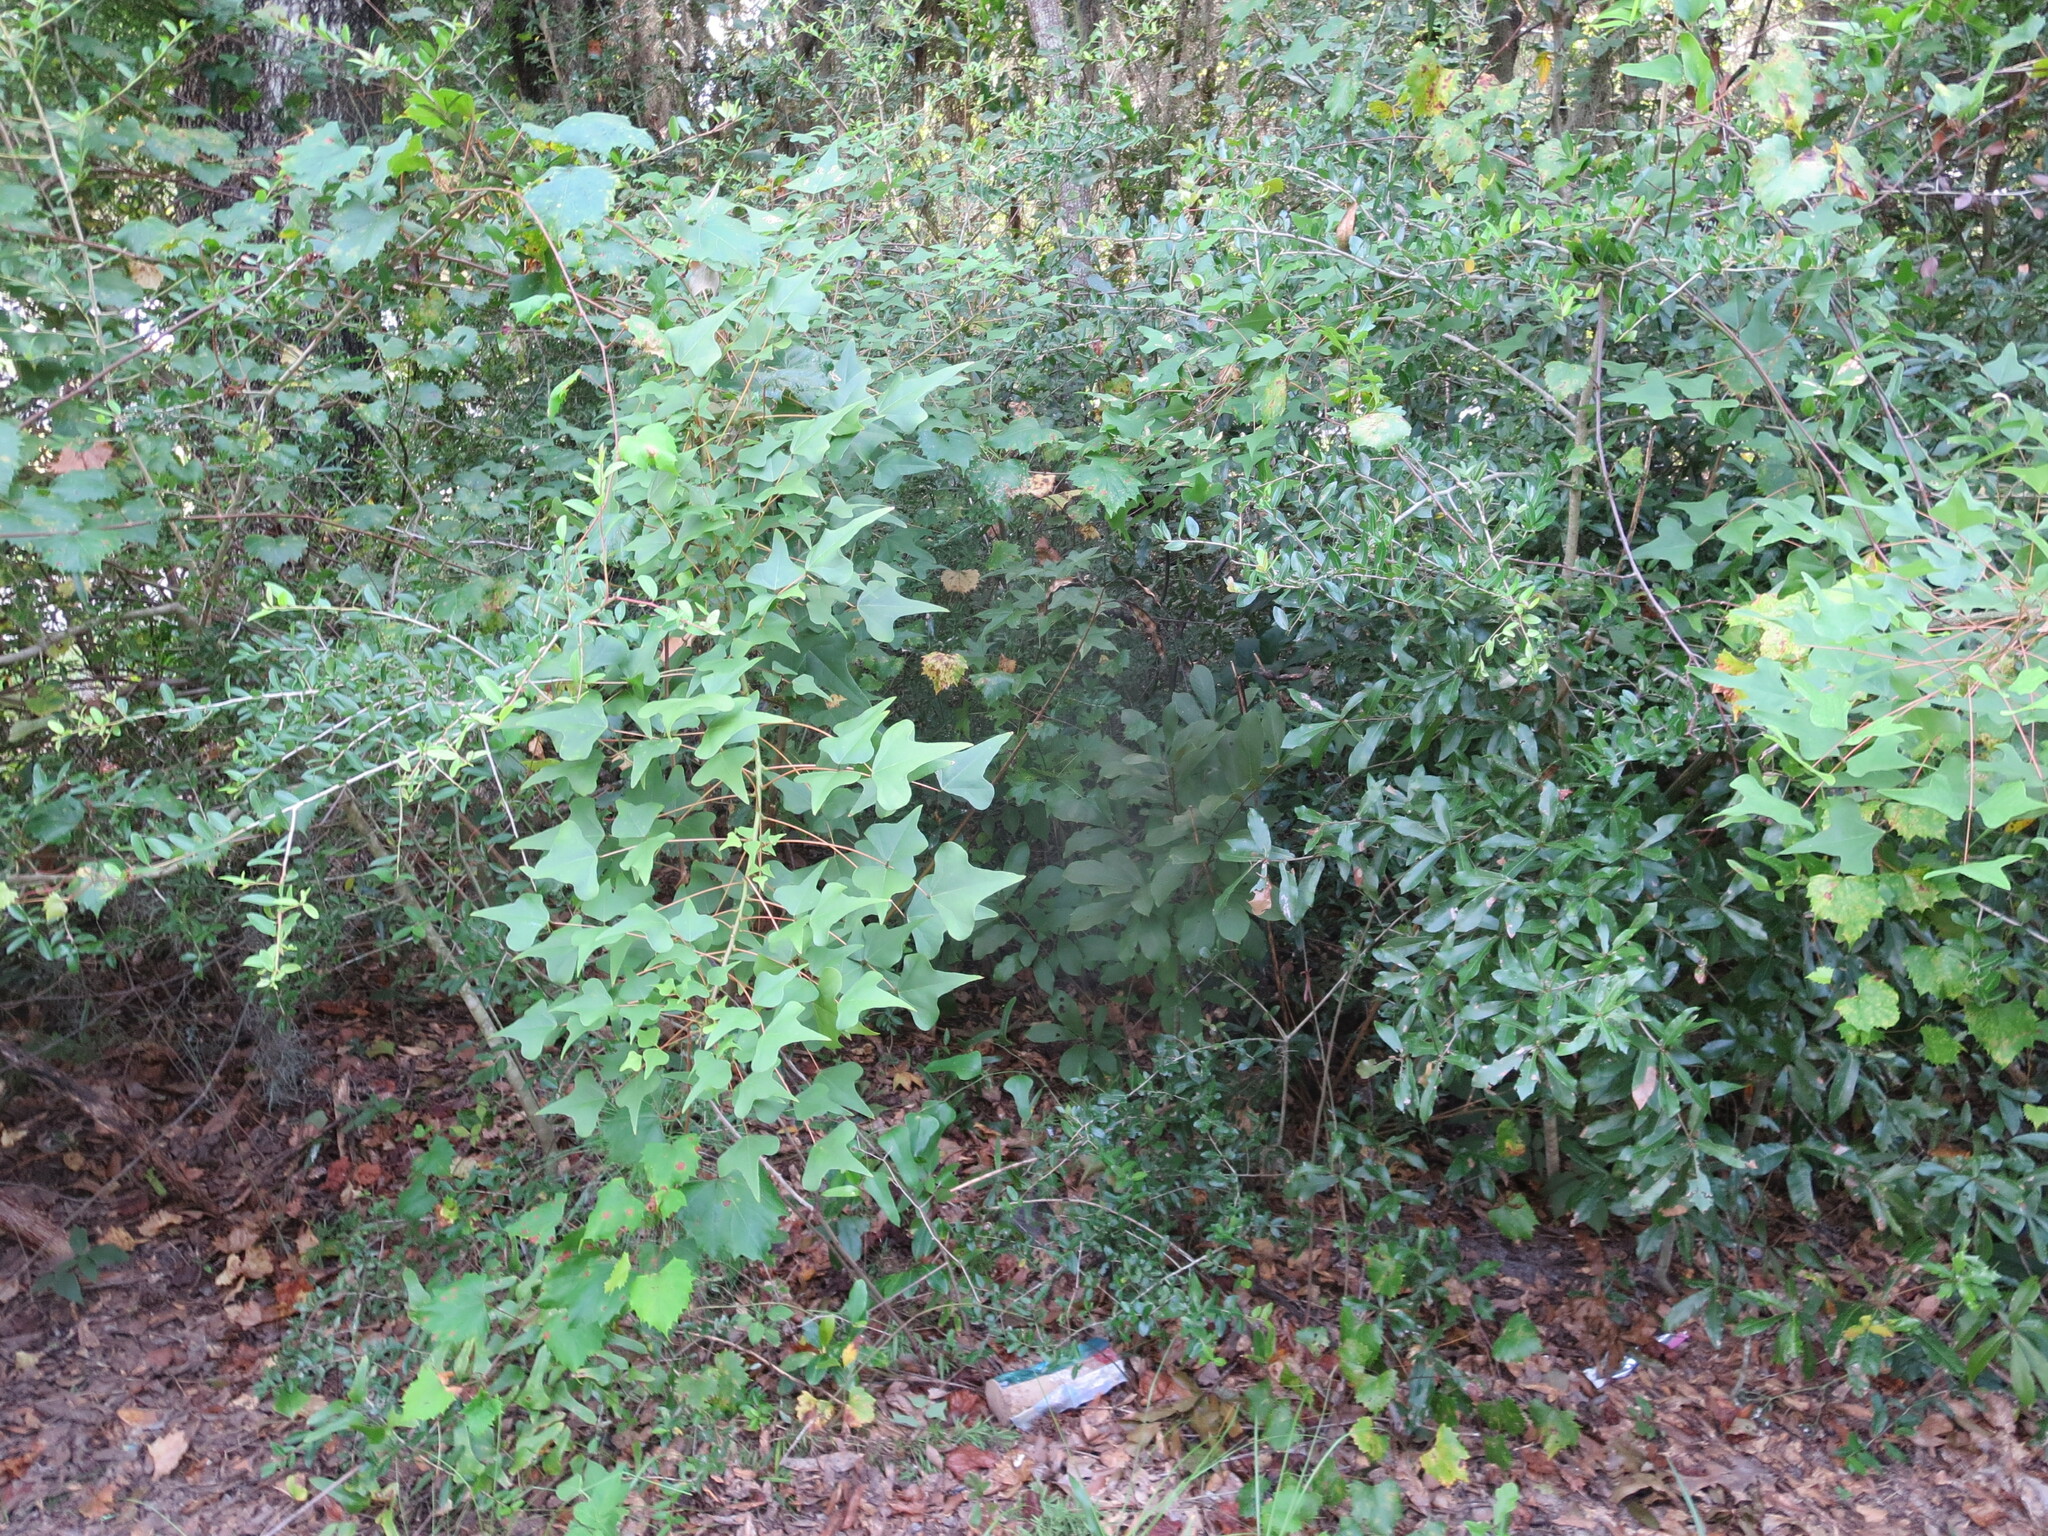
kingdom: Plantae
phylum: Tracheophyta
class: Magnoliopsida
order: Fabales
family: Fabaceae
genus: Erythrina
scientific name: Erythrina herbacea
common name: Coral-bean
